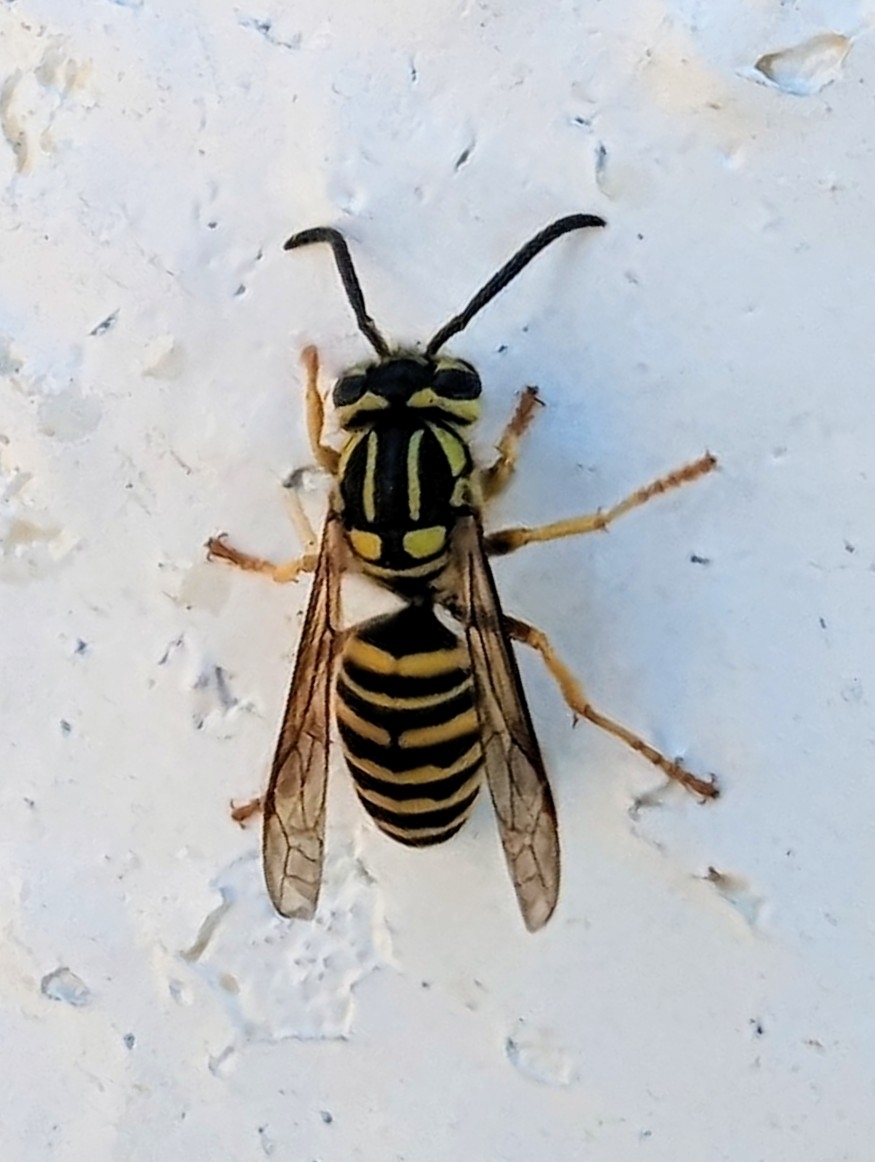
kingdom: Animalia
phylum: Arthropoda
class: Insecta
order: Hymenoptera
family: Vespidae
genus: Vespula
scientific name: Vespula squamosa
